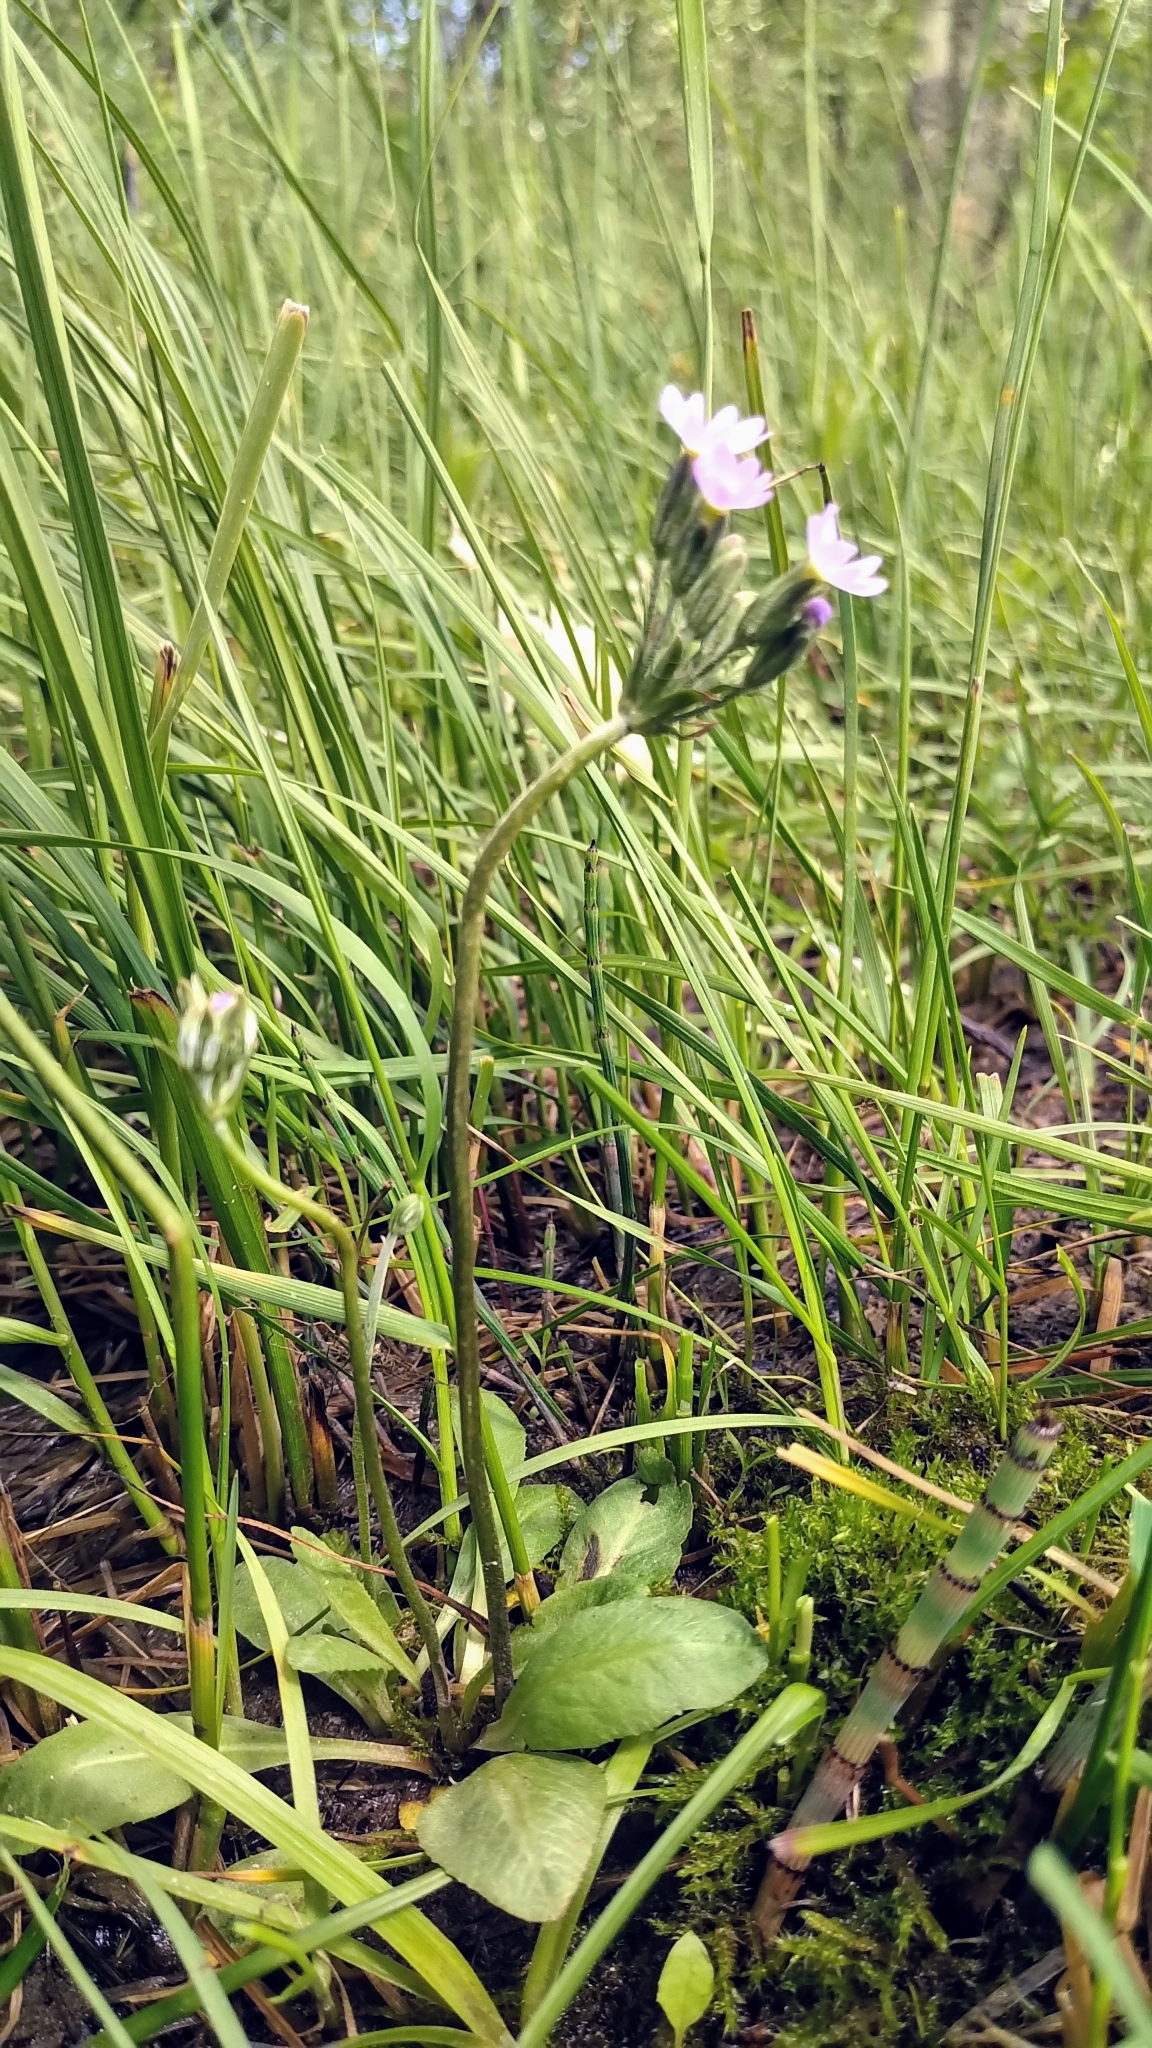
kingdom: Plantae
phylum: Tracheophyta
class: Magnoliopsida
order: Ericales
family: Primulaceae
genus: Primula
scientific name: Primula incana
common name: Hoary primrose
